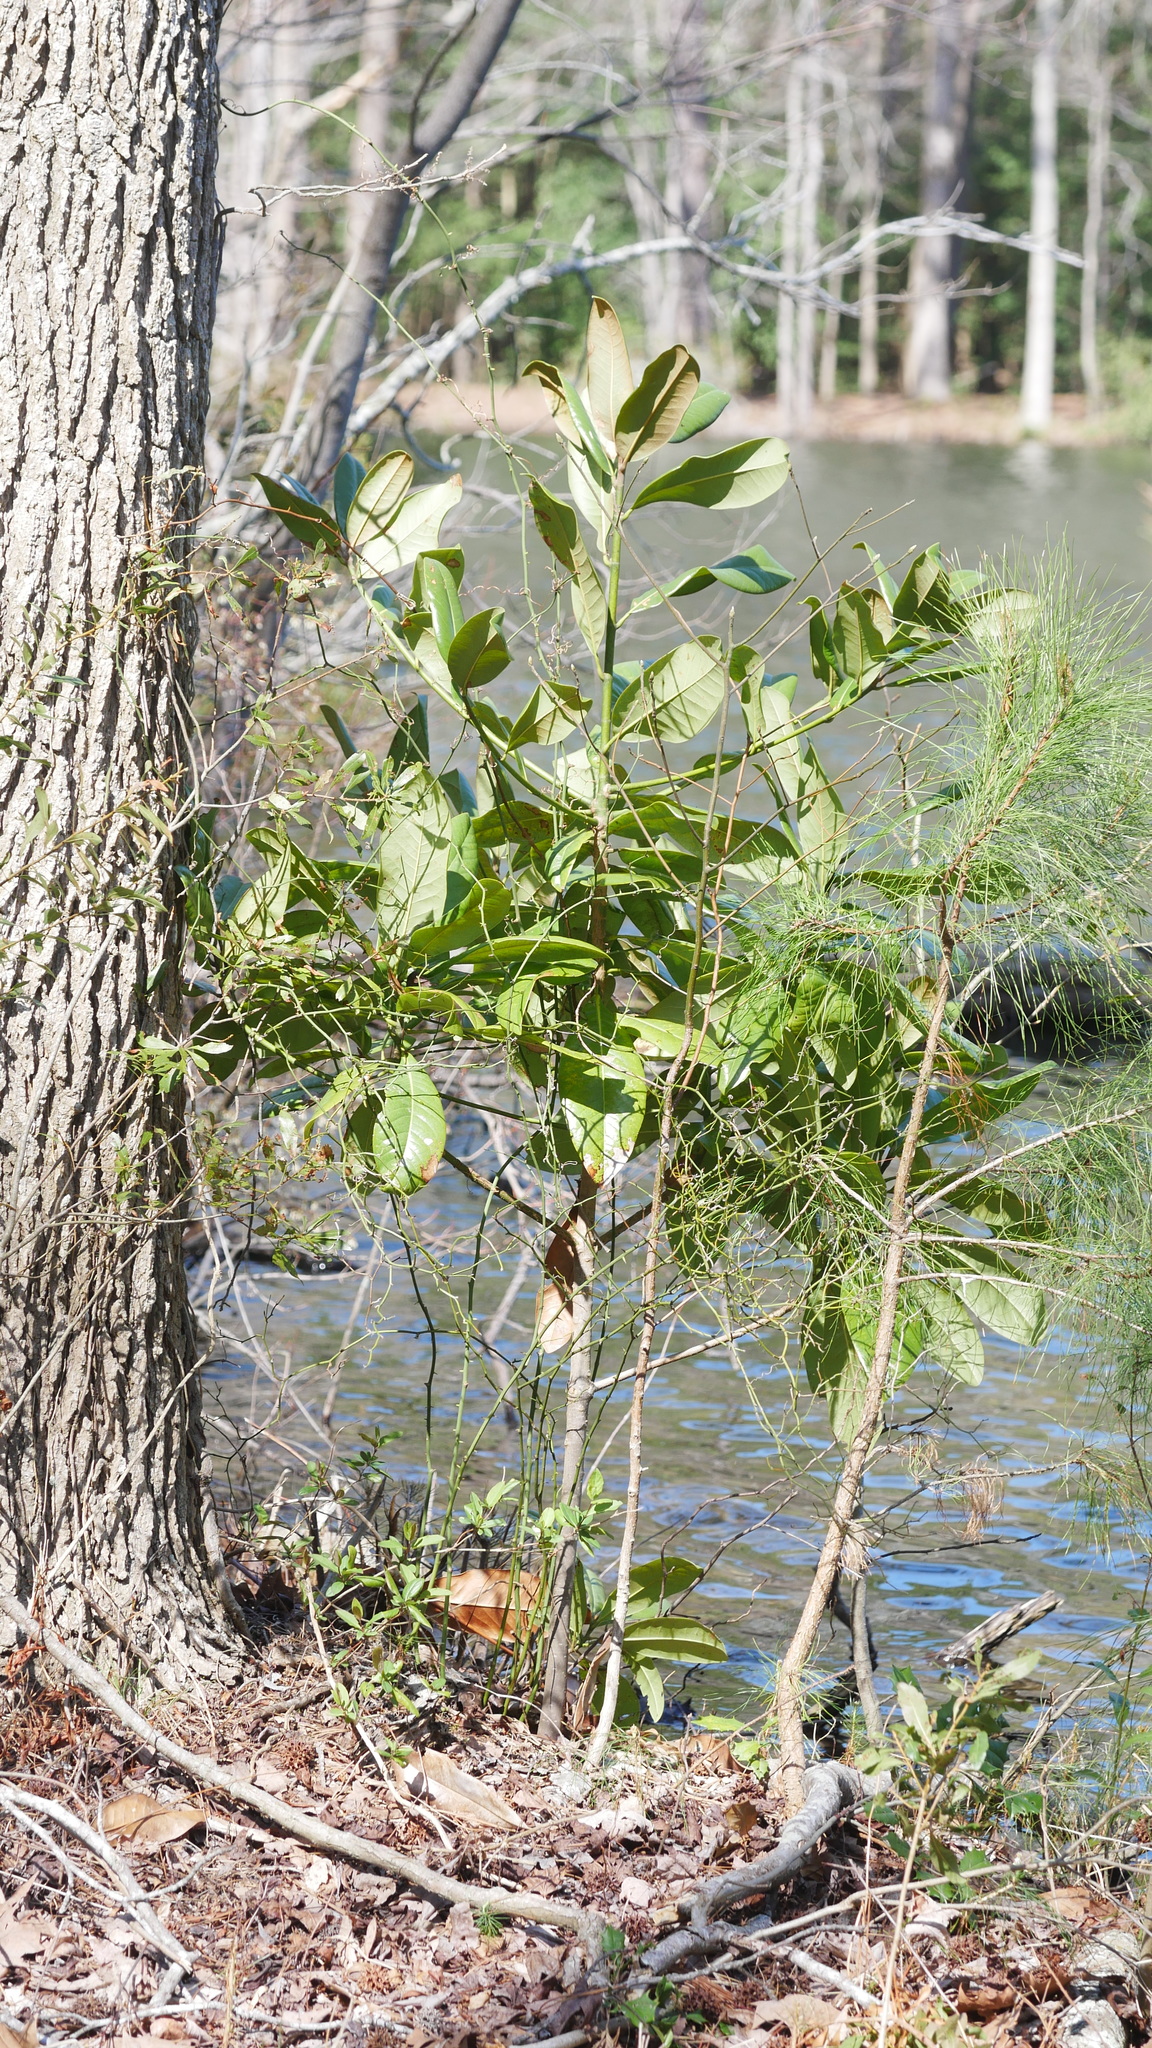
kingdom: Plantae
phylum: Tracheophyta
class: Magnoliopsida
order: Magnoliales
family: Magnoliaceae
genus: Magnolia
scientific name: Magnolia grandiflora
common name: Southern magnolia
